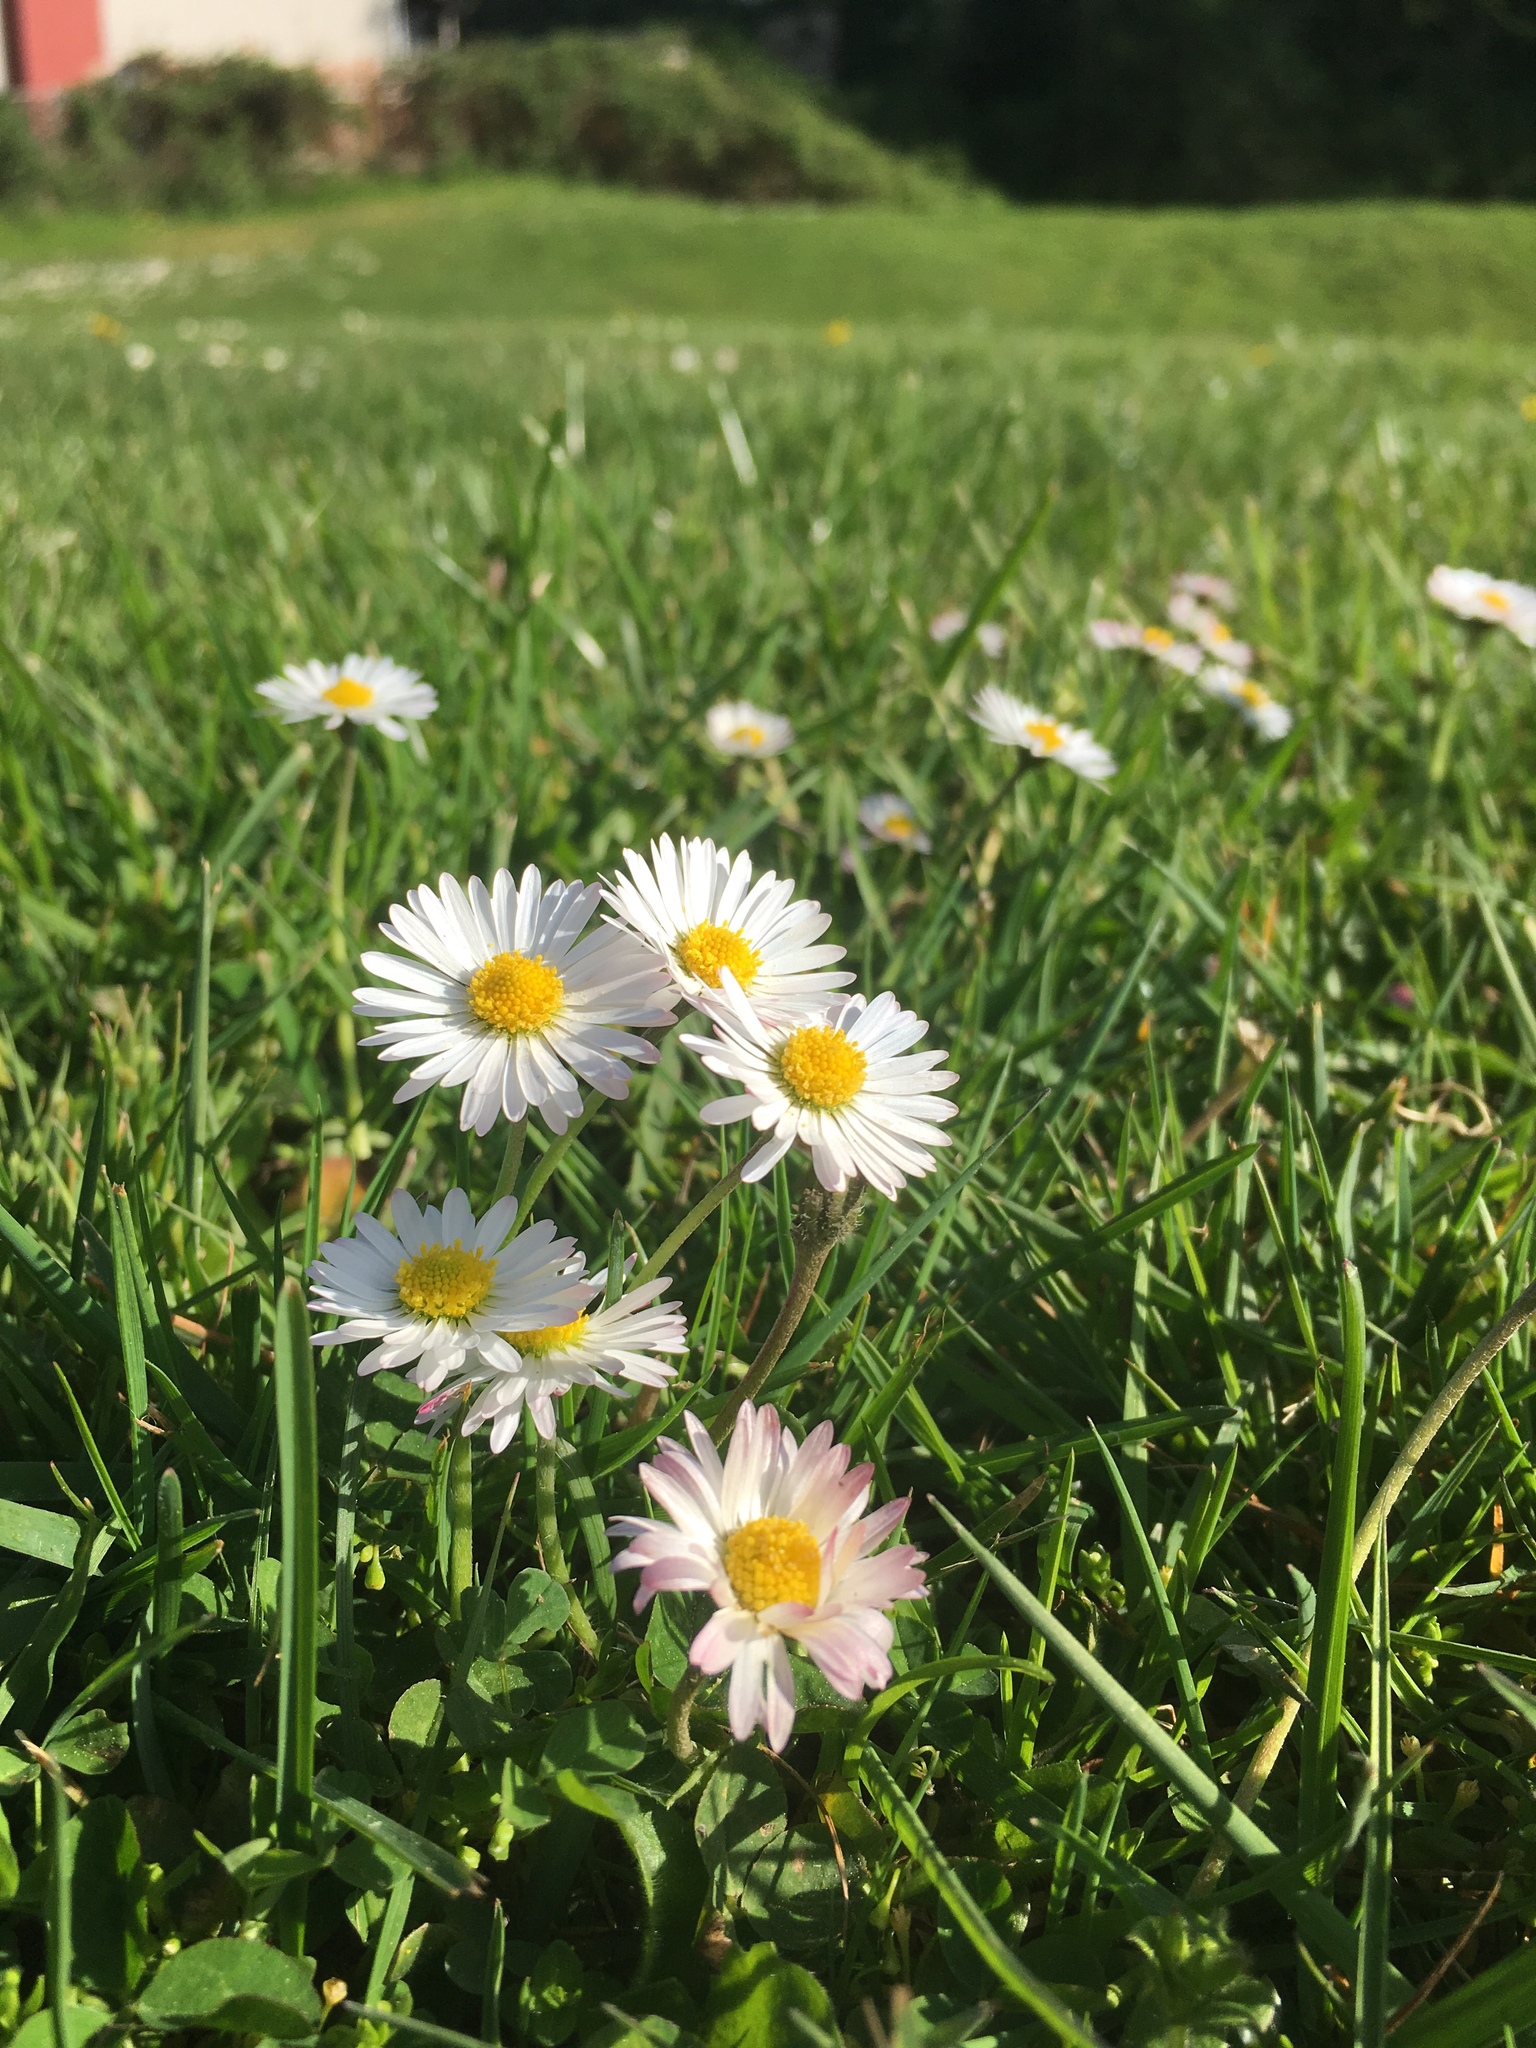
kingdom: Plantae
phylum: Tracheophyta
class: Magnoliopsida
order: Asterales
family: Asteraceae
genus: Bellis
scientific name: Bellis perennis
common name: Lawndaisy
